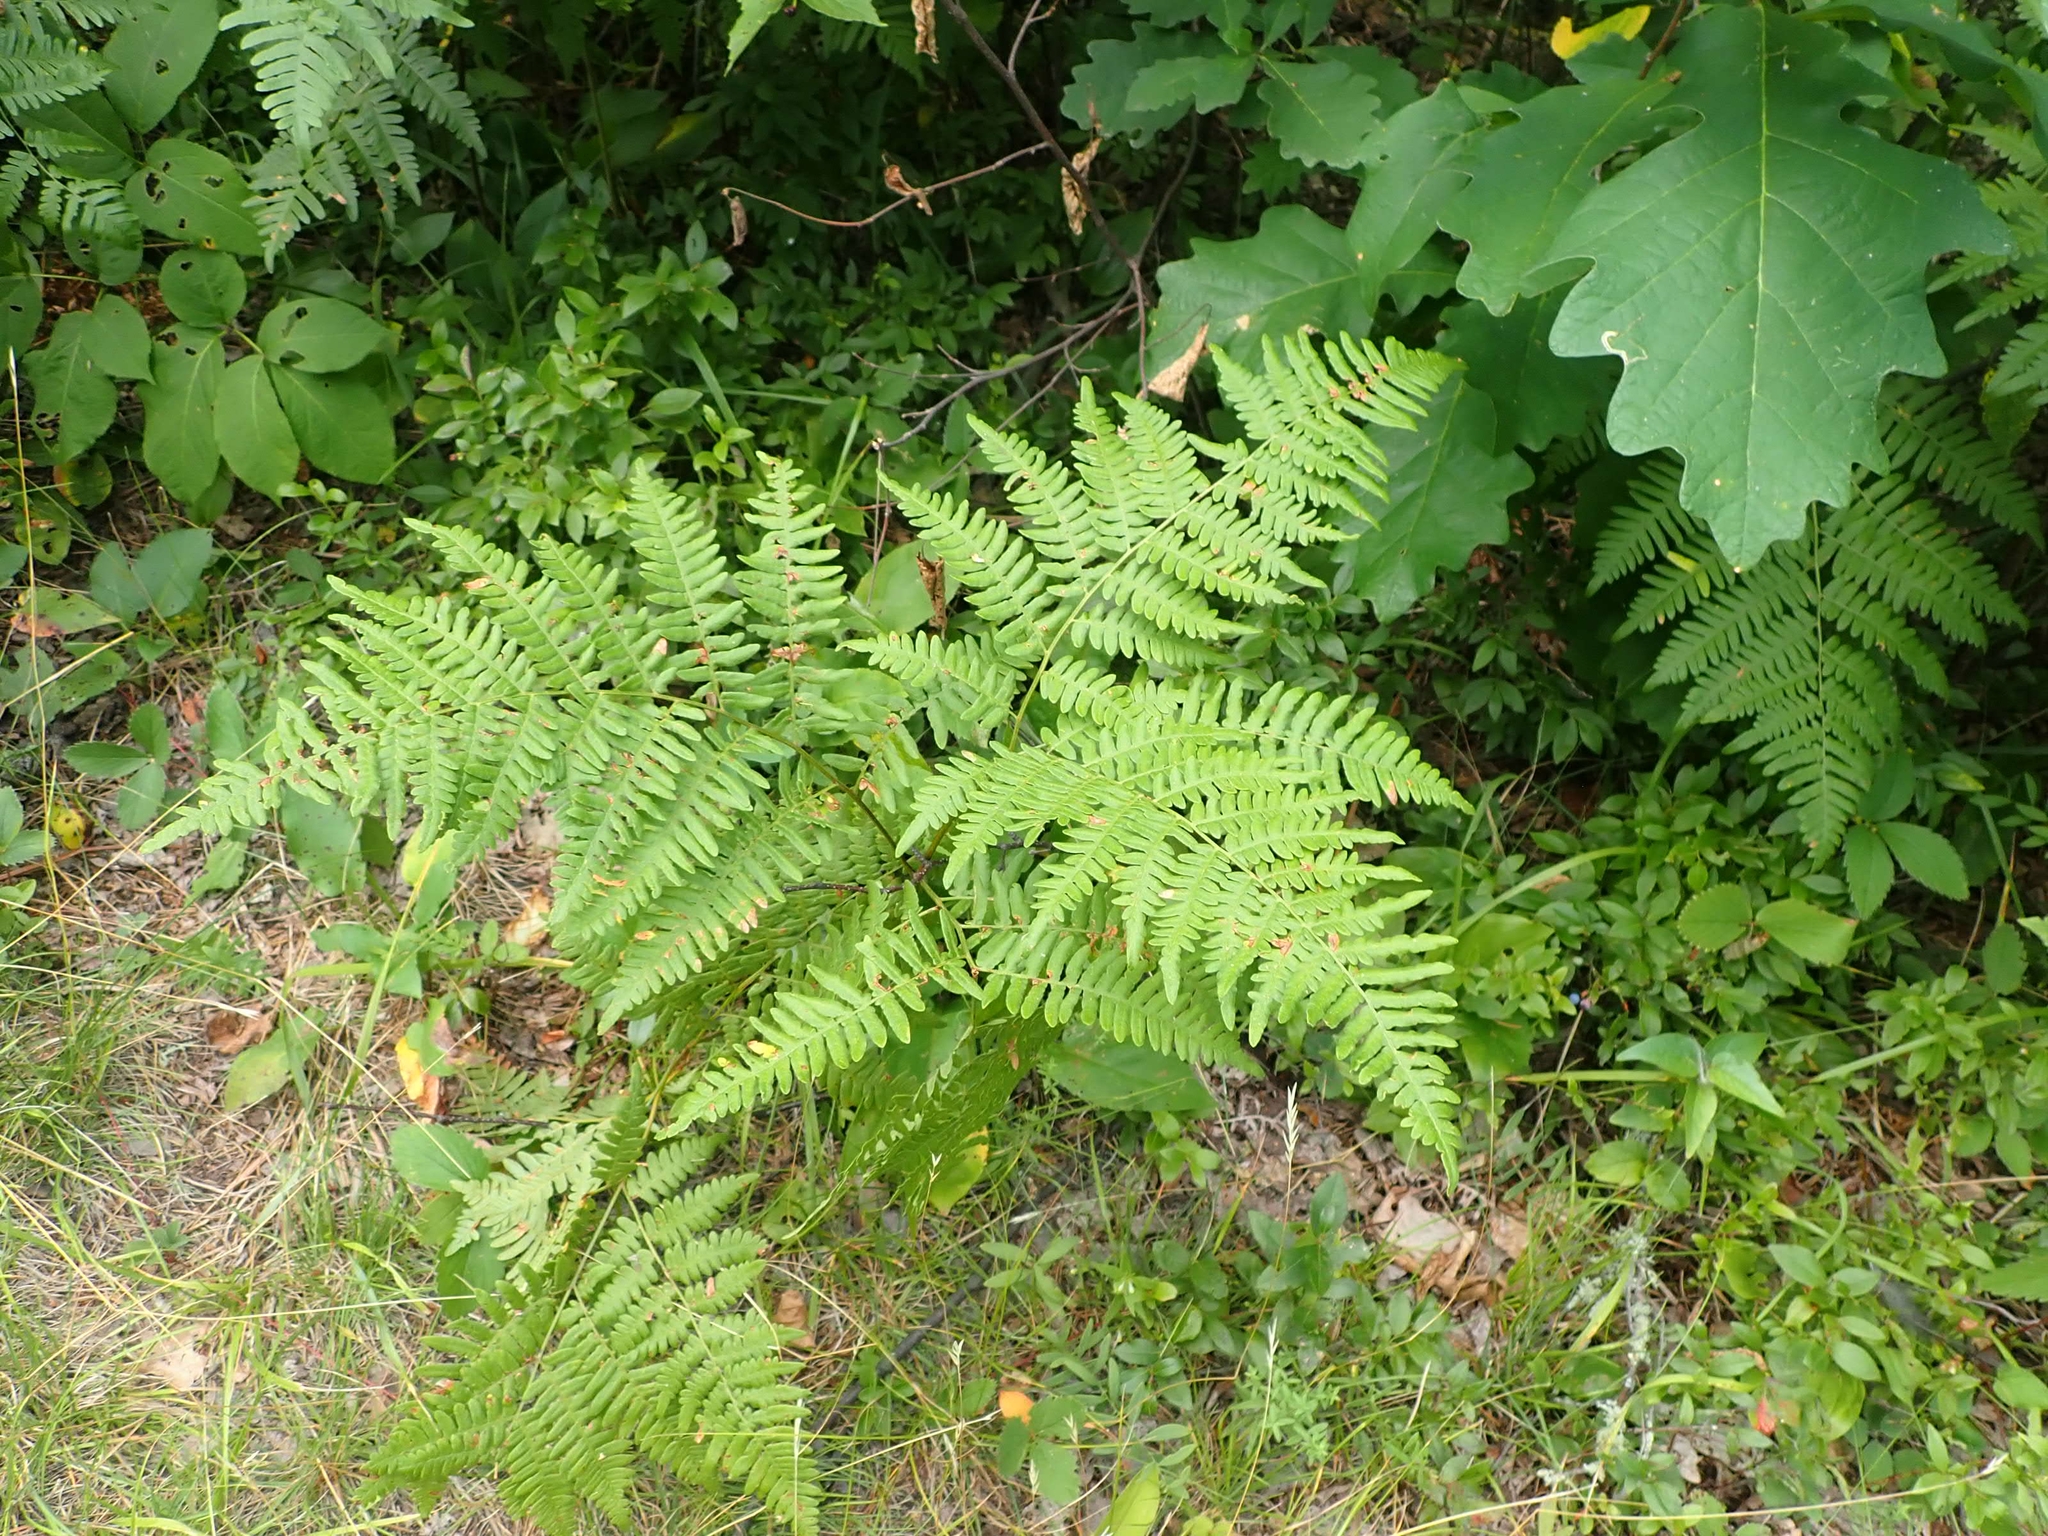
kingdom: Plantae
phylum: Tracheophyta
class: Polypodiopsida
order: Polypodiales
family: Dennstaedtiaceae
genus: Pteridium
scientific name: Pteridium aquilinum
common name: Bracken
